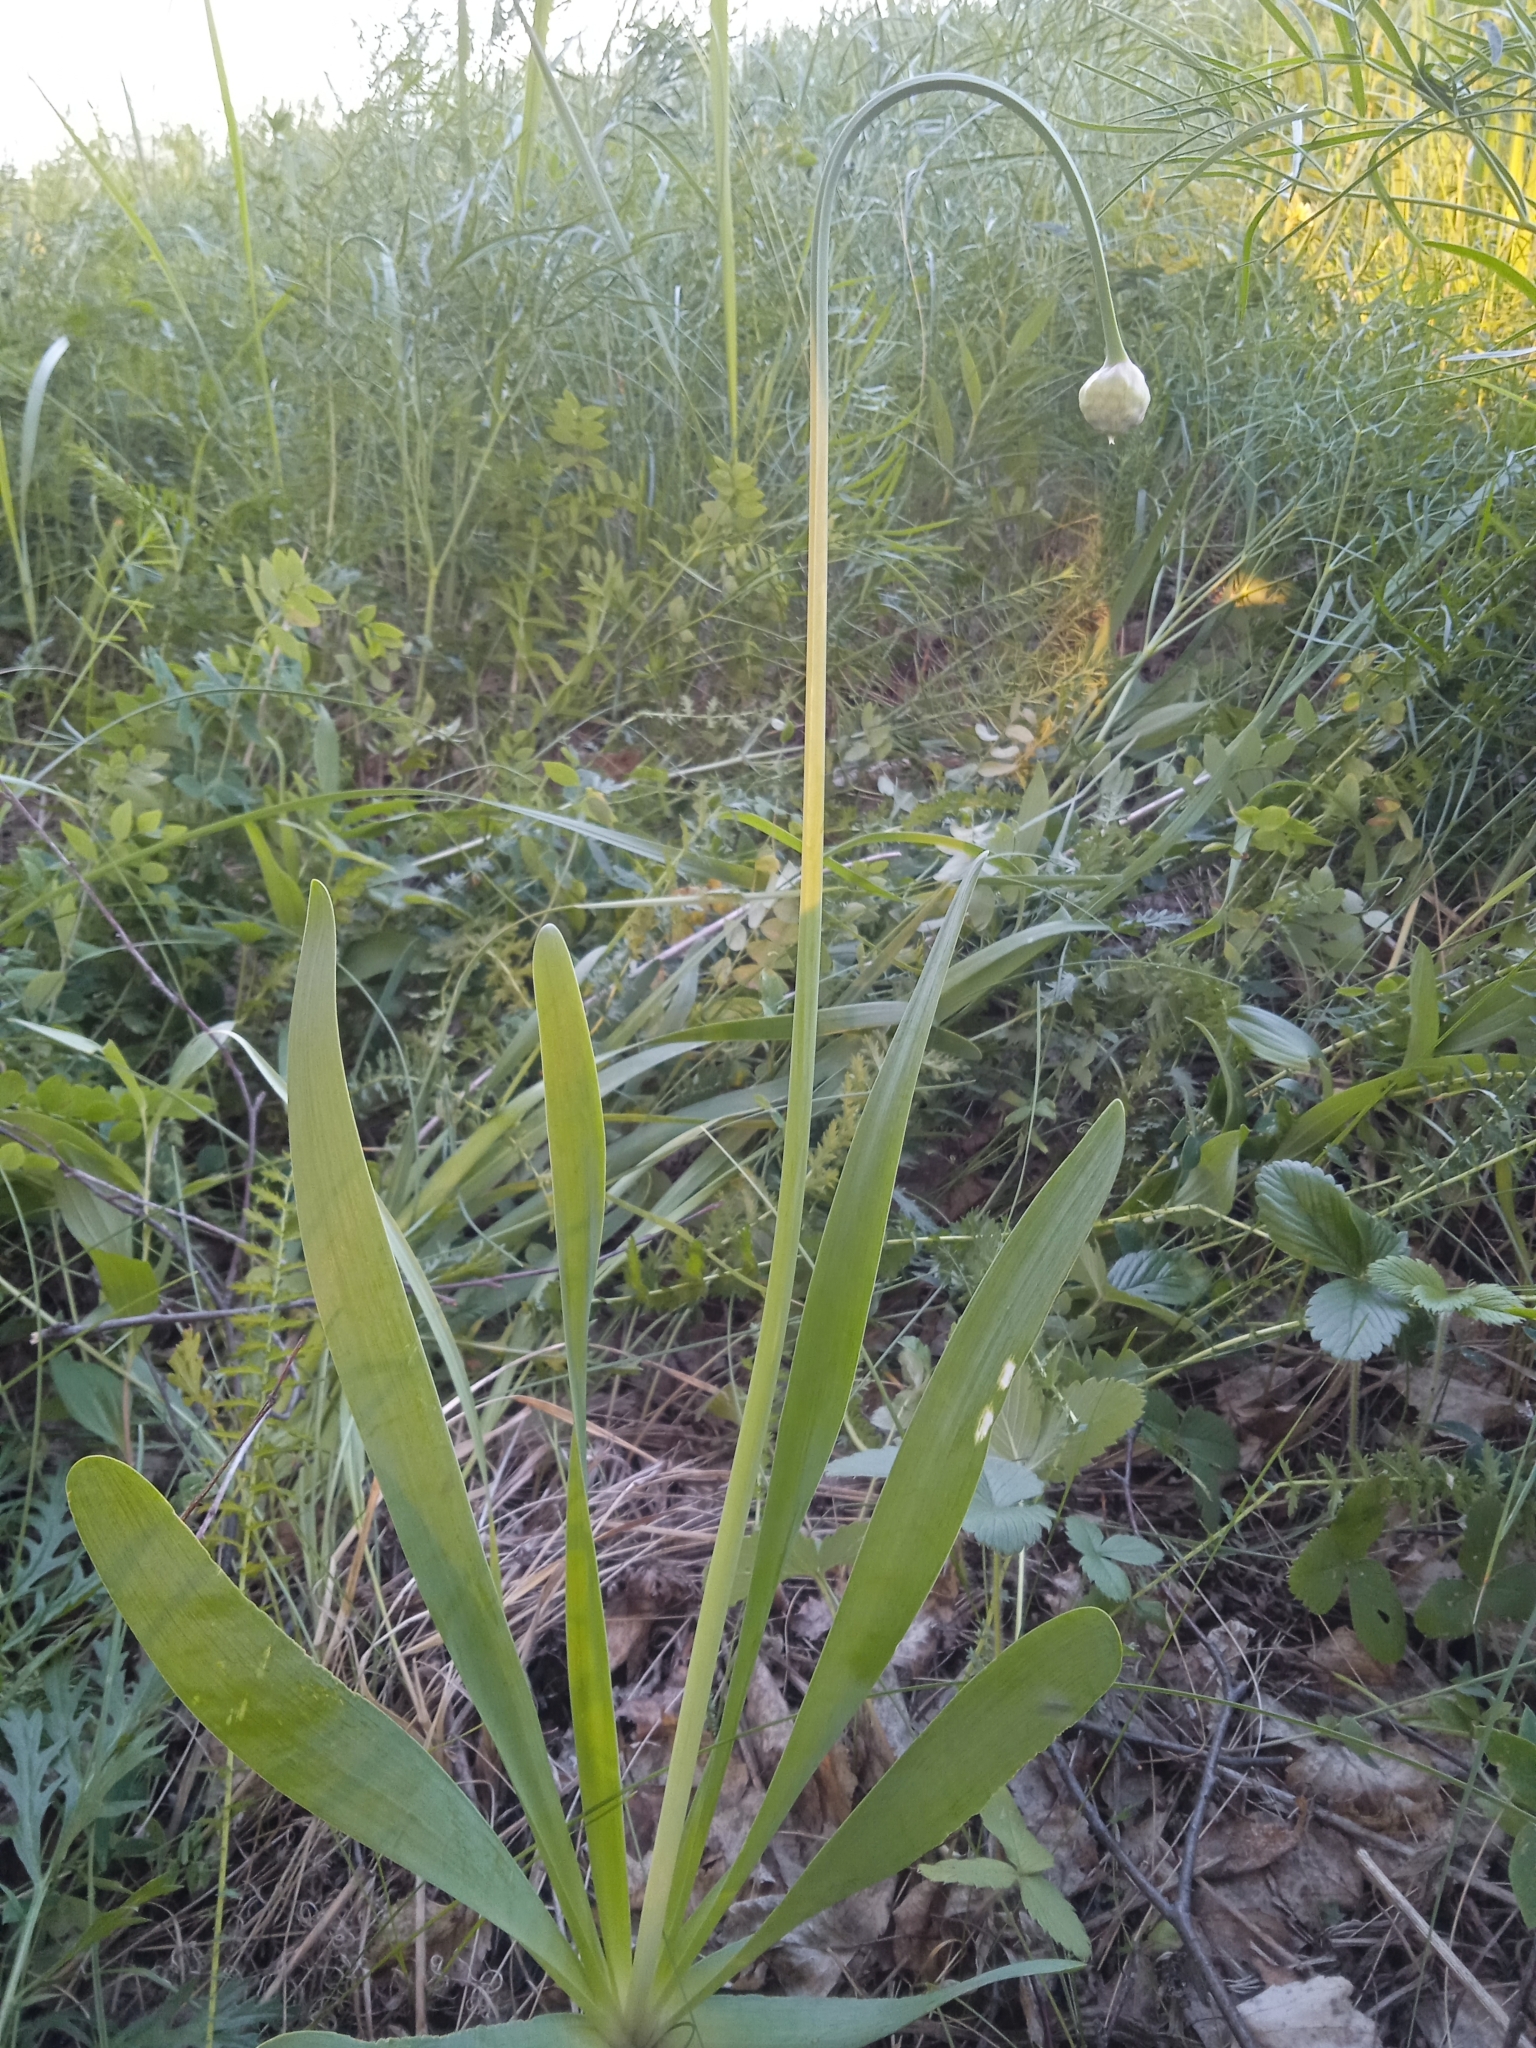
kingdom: Plantae
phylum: Tracheophyta
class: Liliopsida
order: Asparagales
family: Amaryllidaceae
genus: Allium
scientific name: Allium nutans
